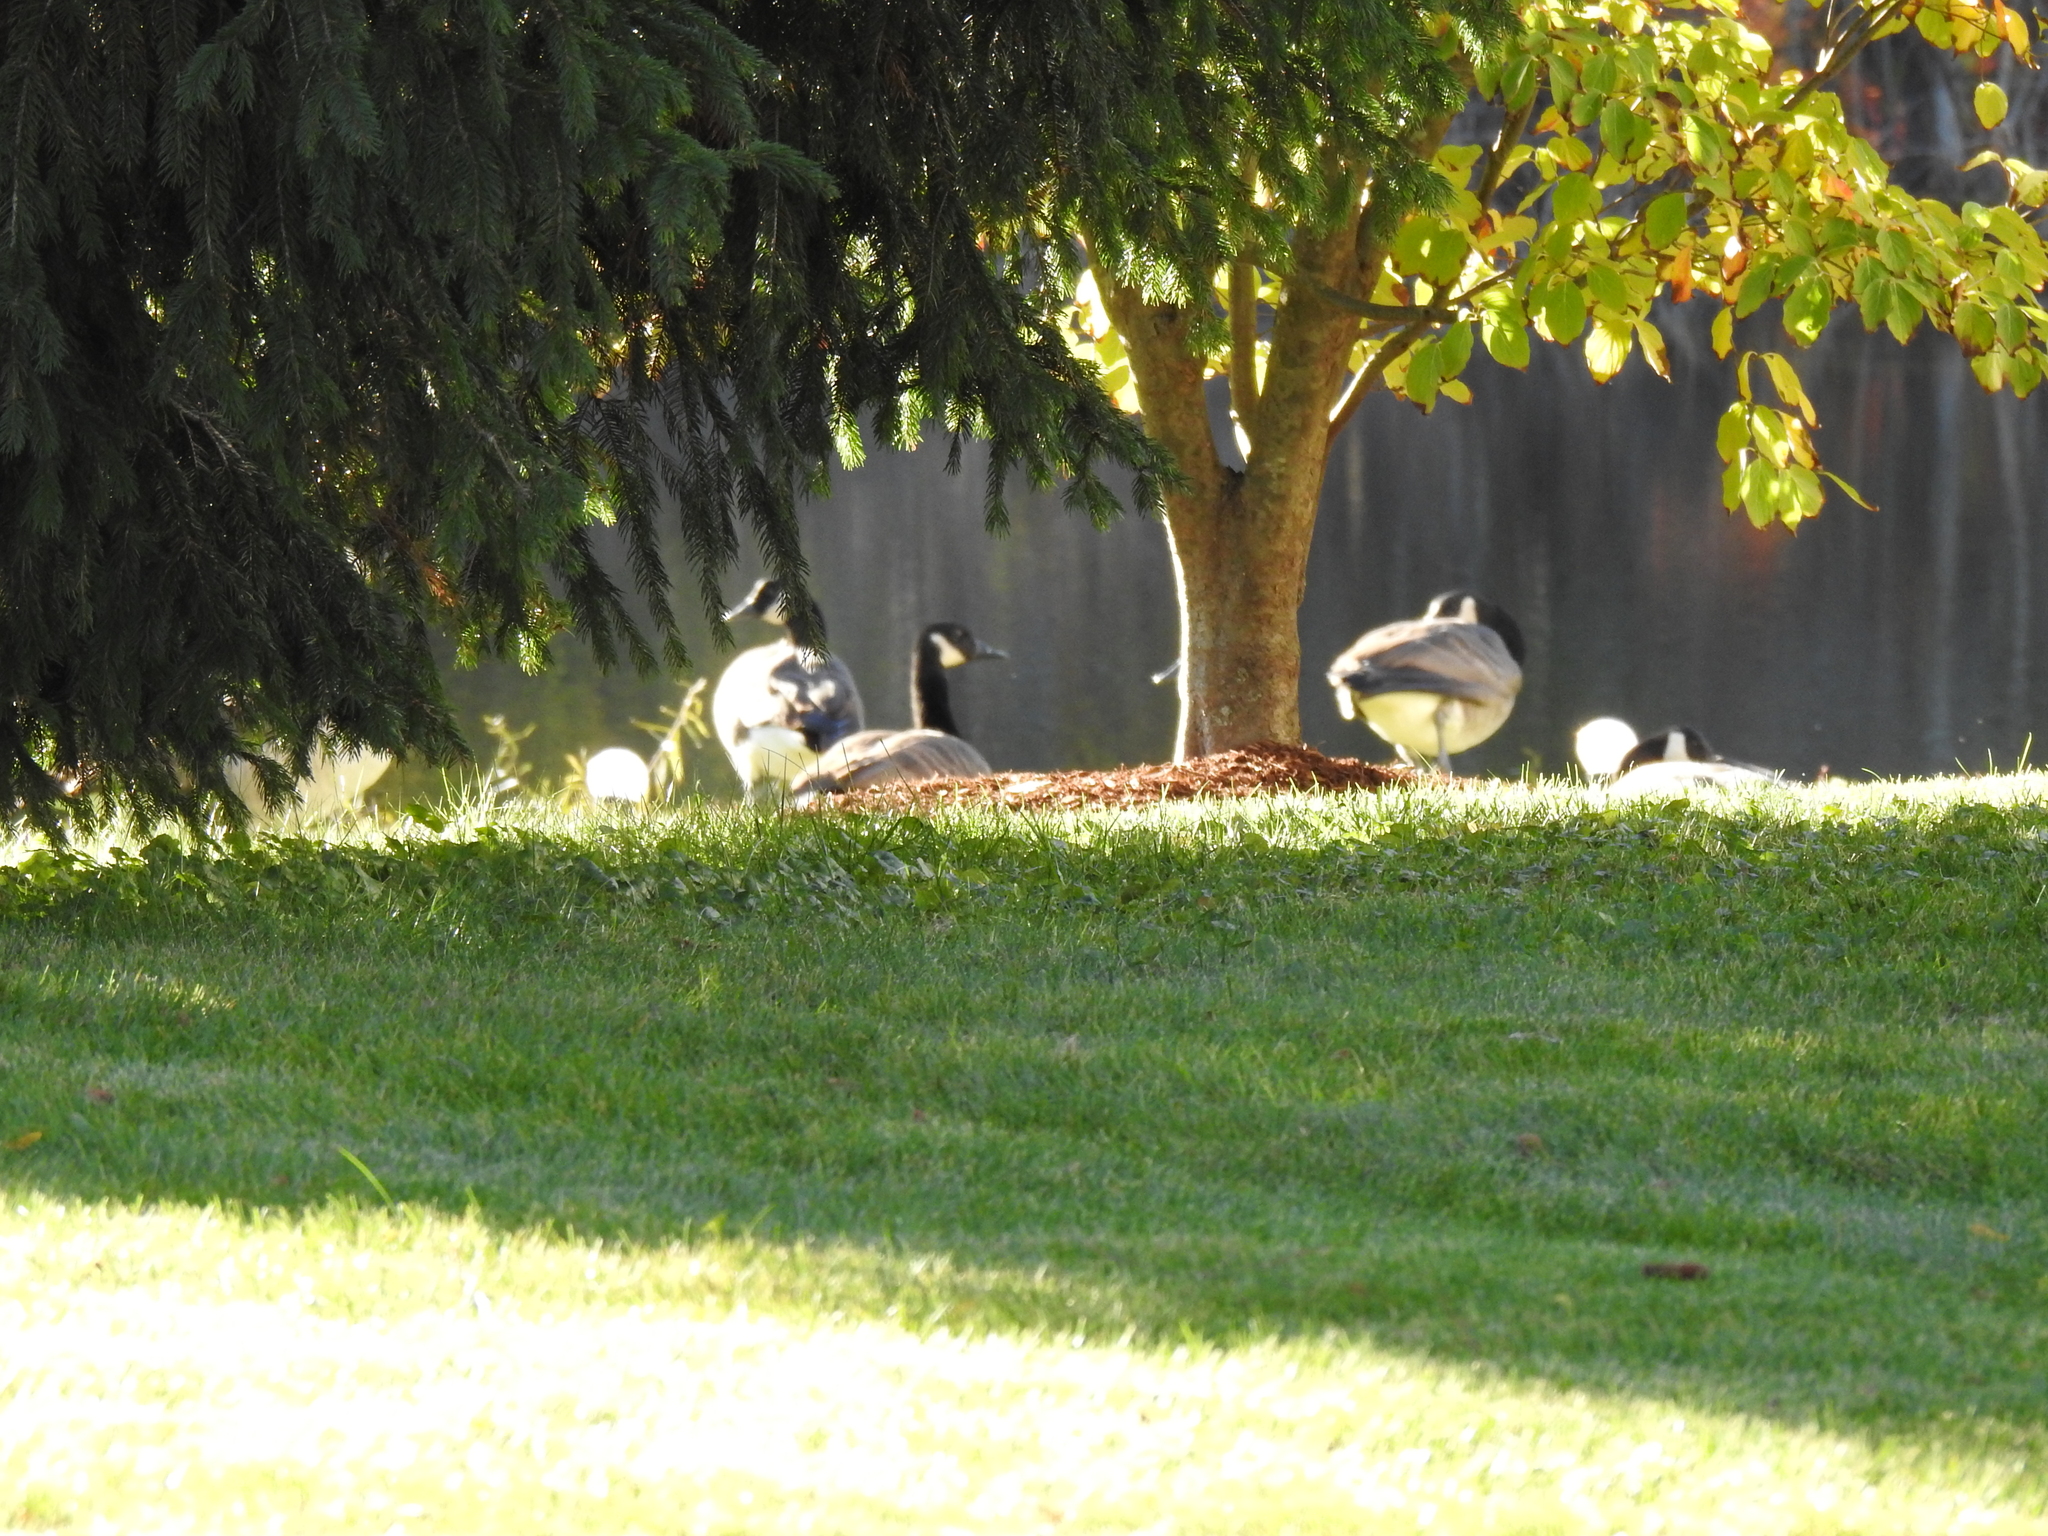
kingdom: Animalia
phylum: Chordata
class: Aves
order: Anseriformes
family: Anatidae
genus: Branta
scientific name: Branta canadensis
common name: Canada goose
